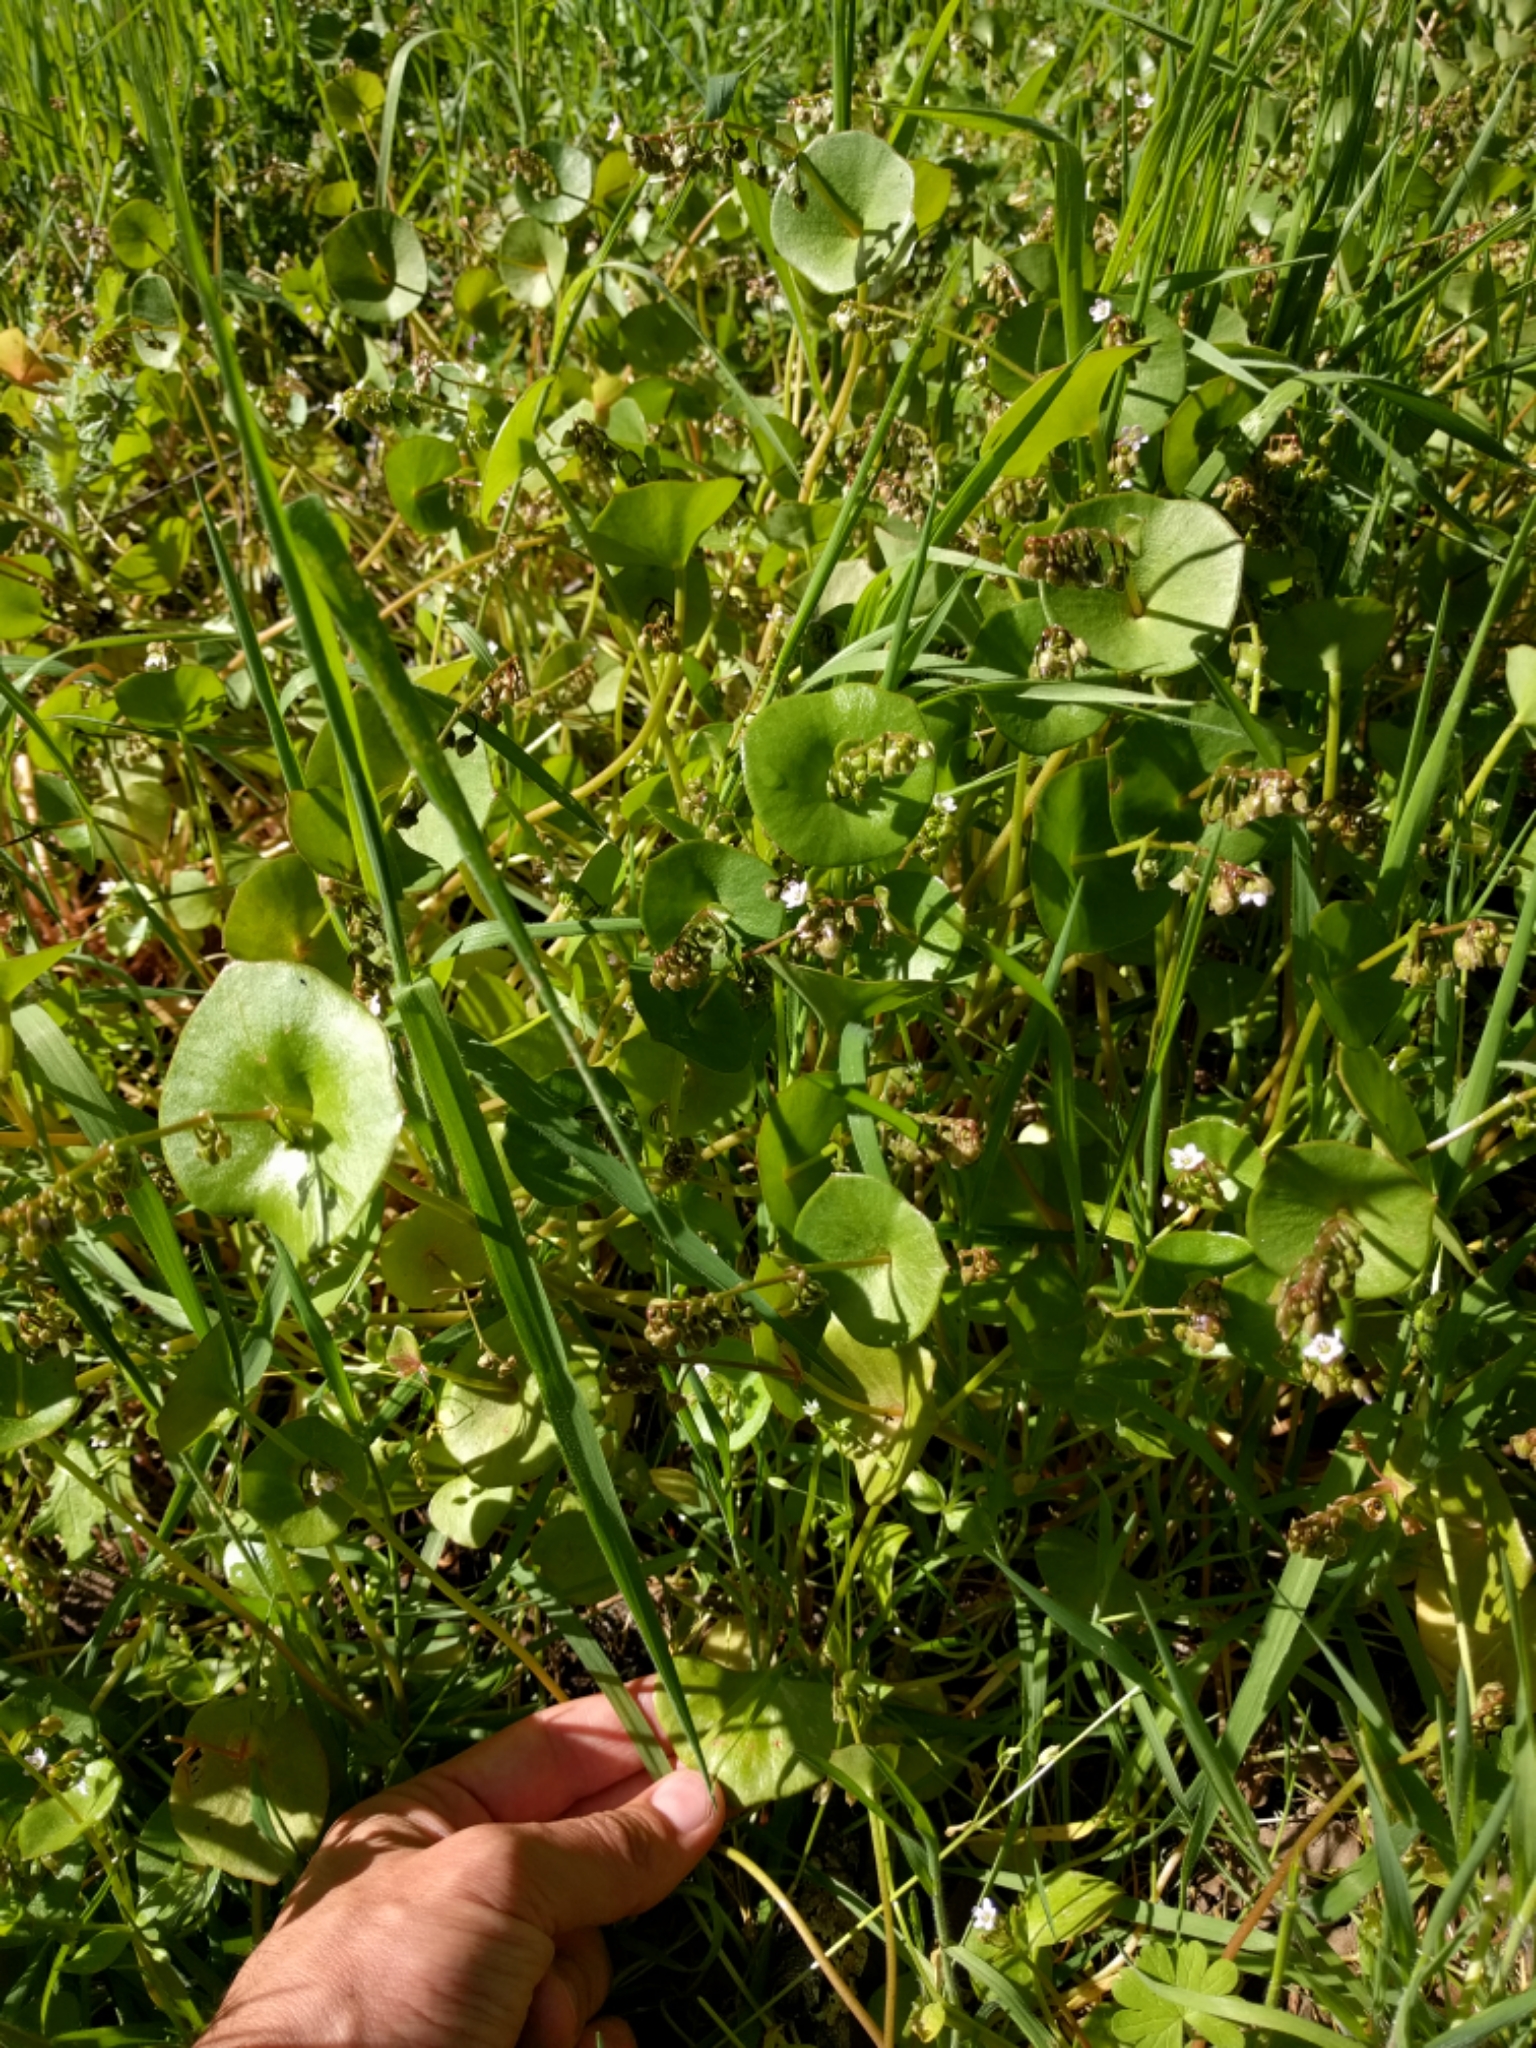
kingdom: Plantae
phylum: Tracheophyta
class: Magnoliopsida
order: Caryophyllales
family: Montiaceae
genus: Claytonia
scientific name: Claytonia perfoliata
